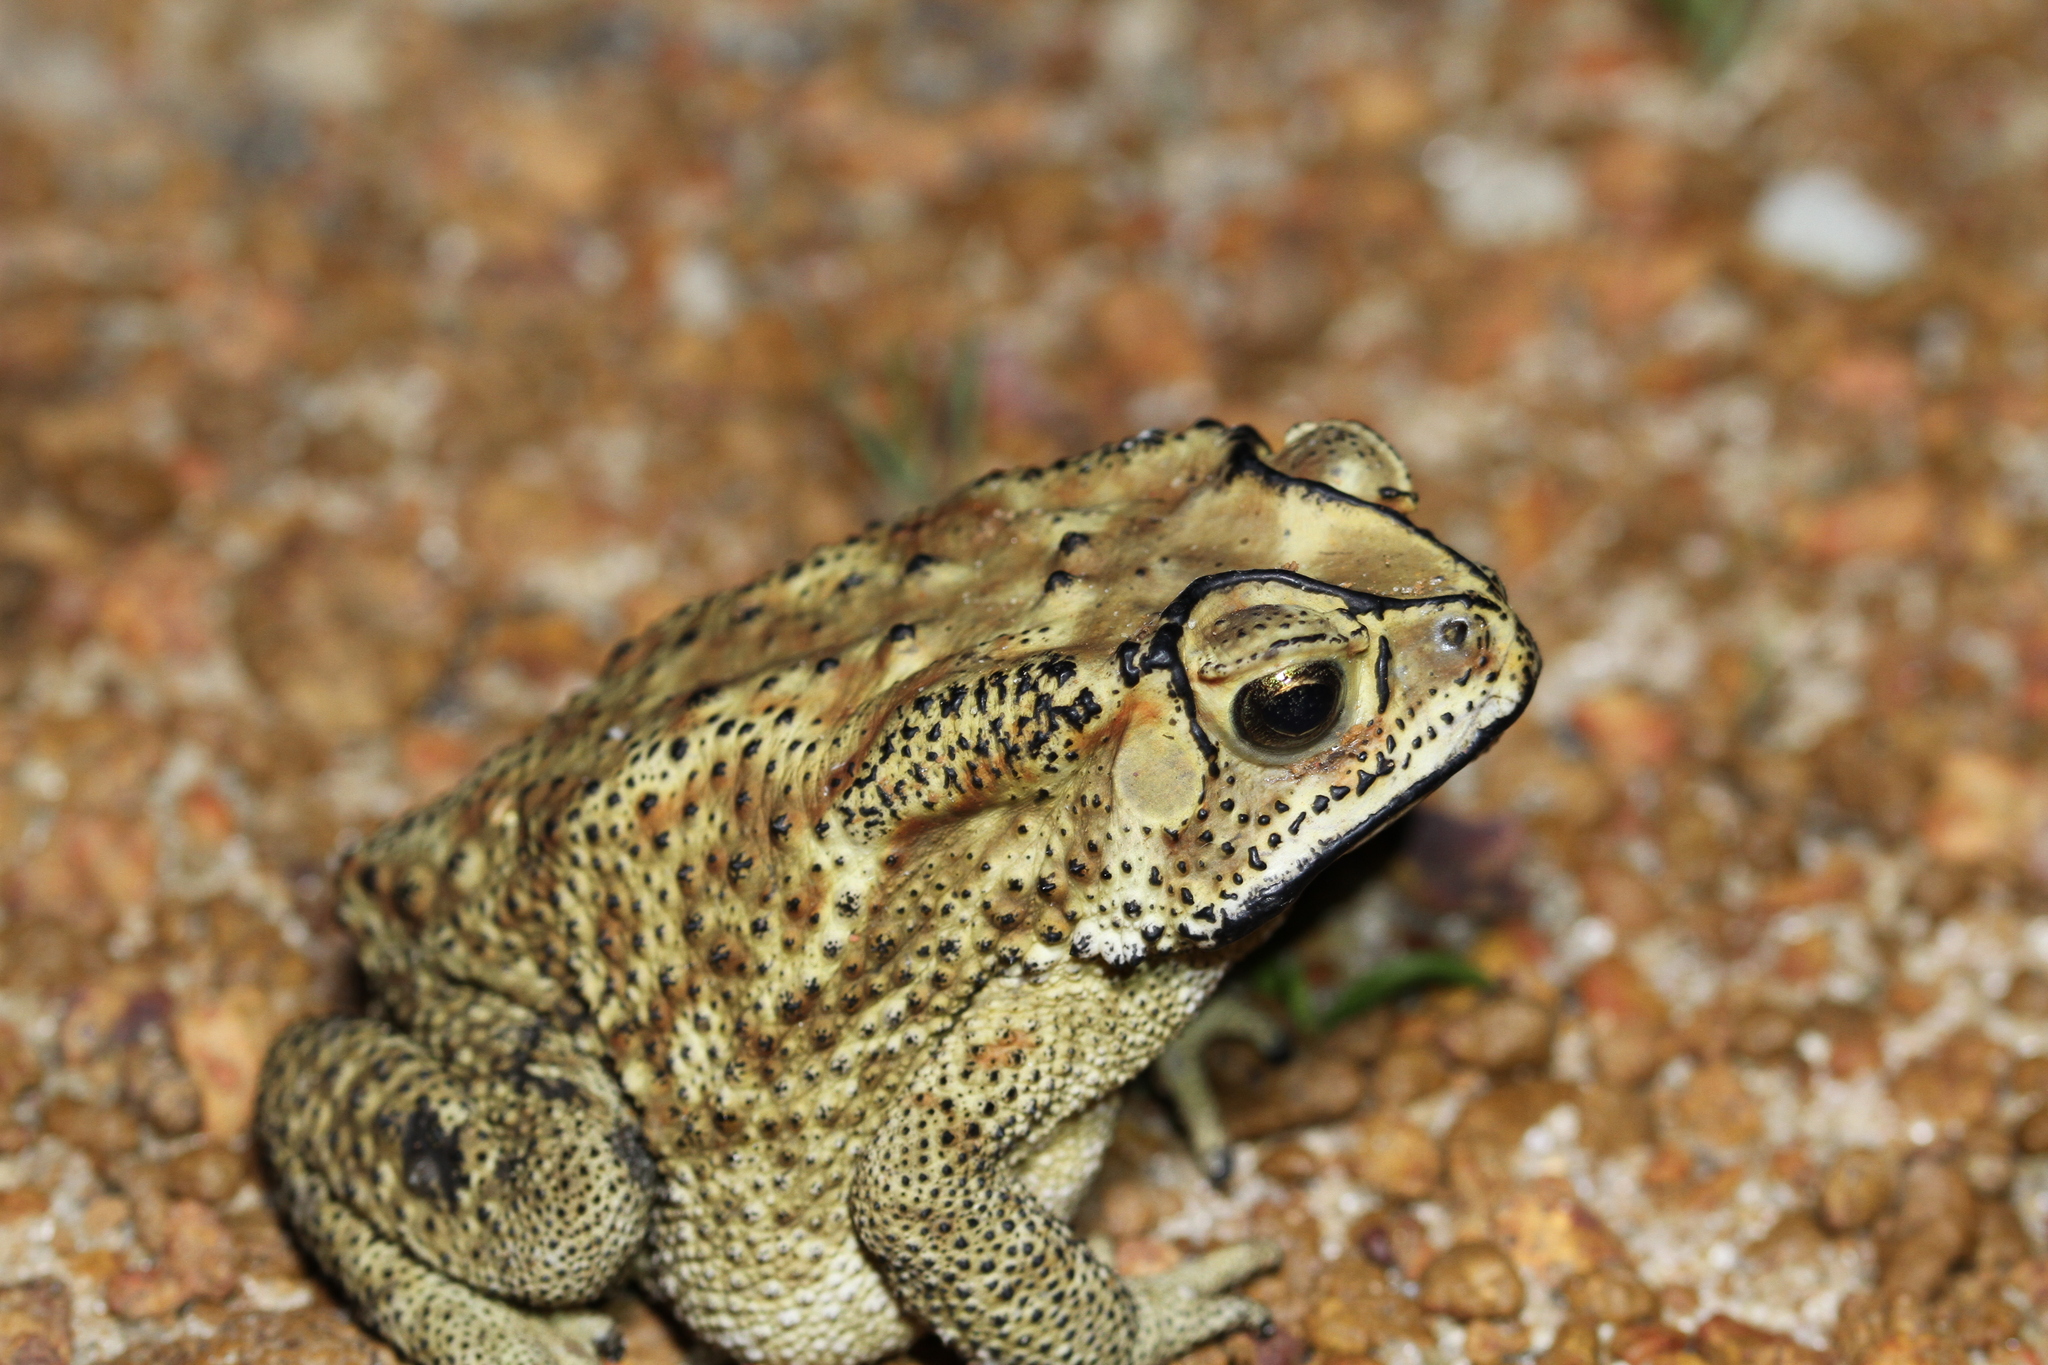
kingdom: Animalia
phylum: Chordata
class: Amphibia
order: Anura
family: Bufonidae
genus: Duttaphrynus
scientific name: Duttaphrynus melanostictus
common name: Common sunda toad
